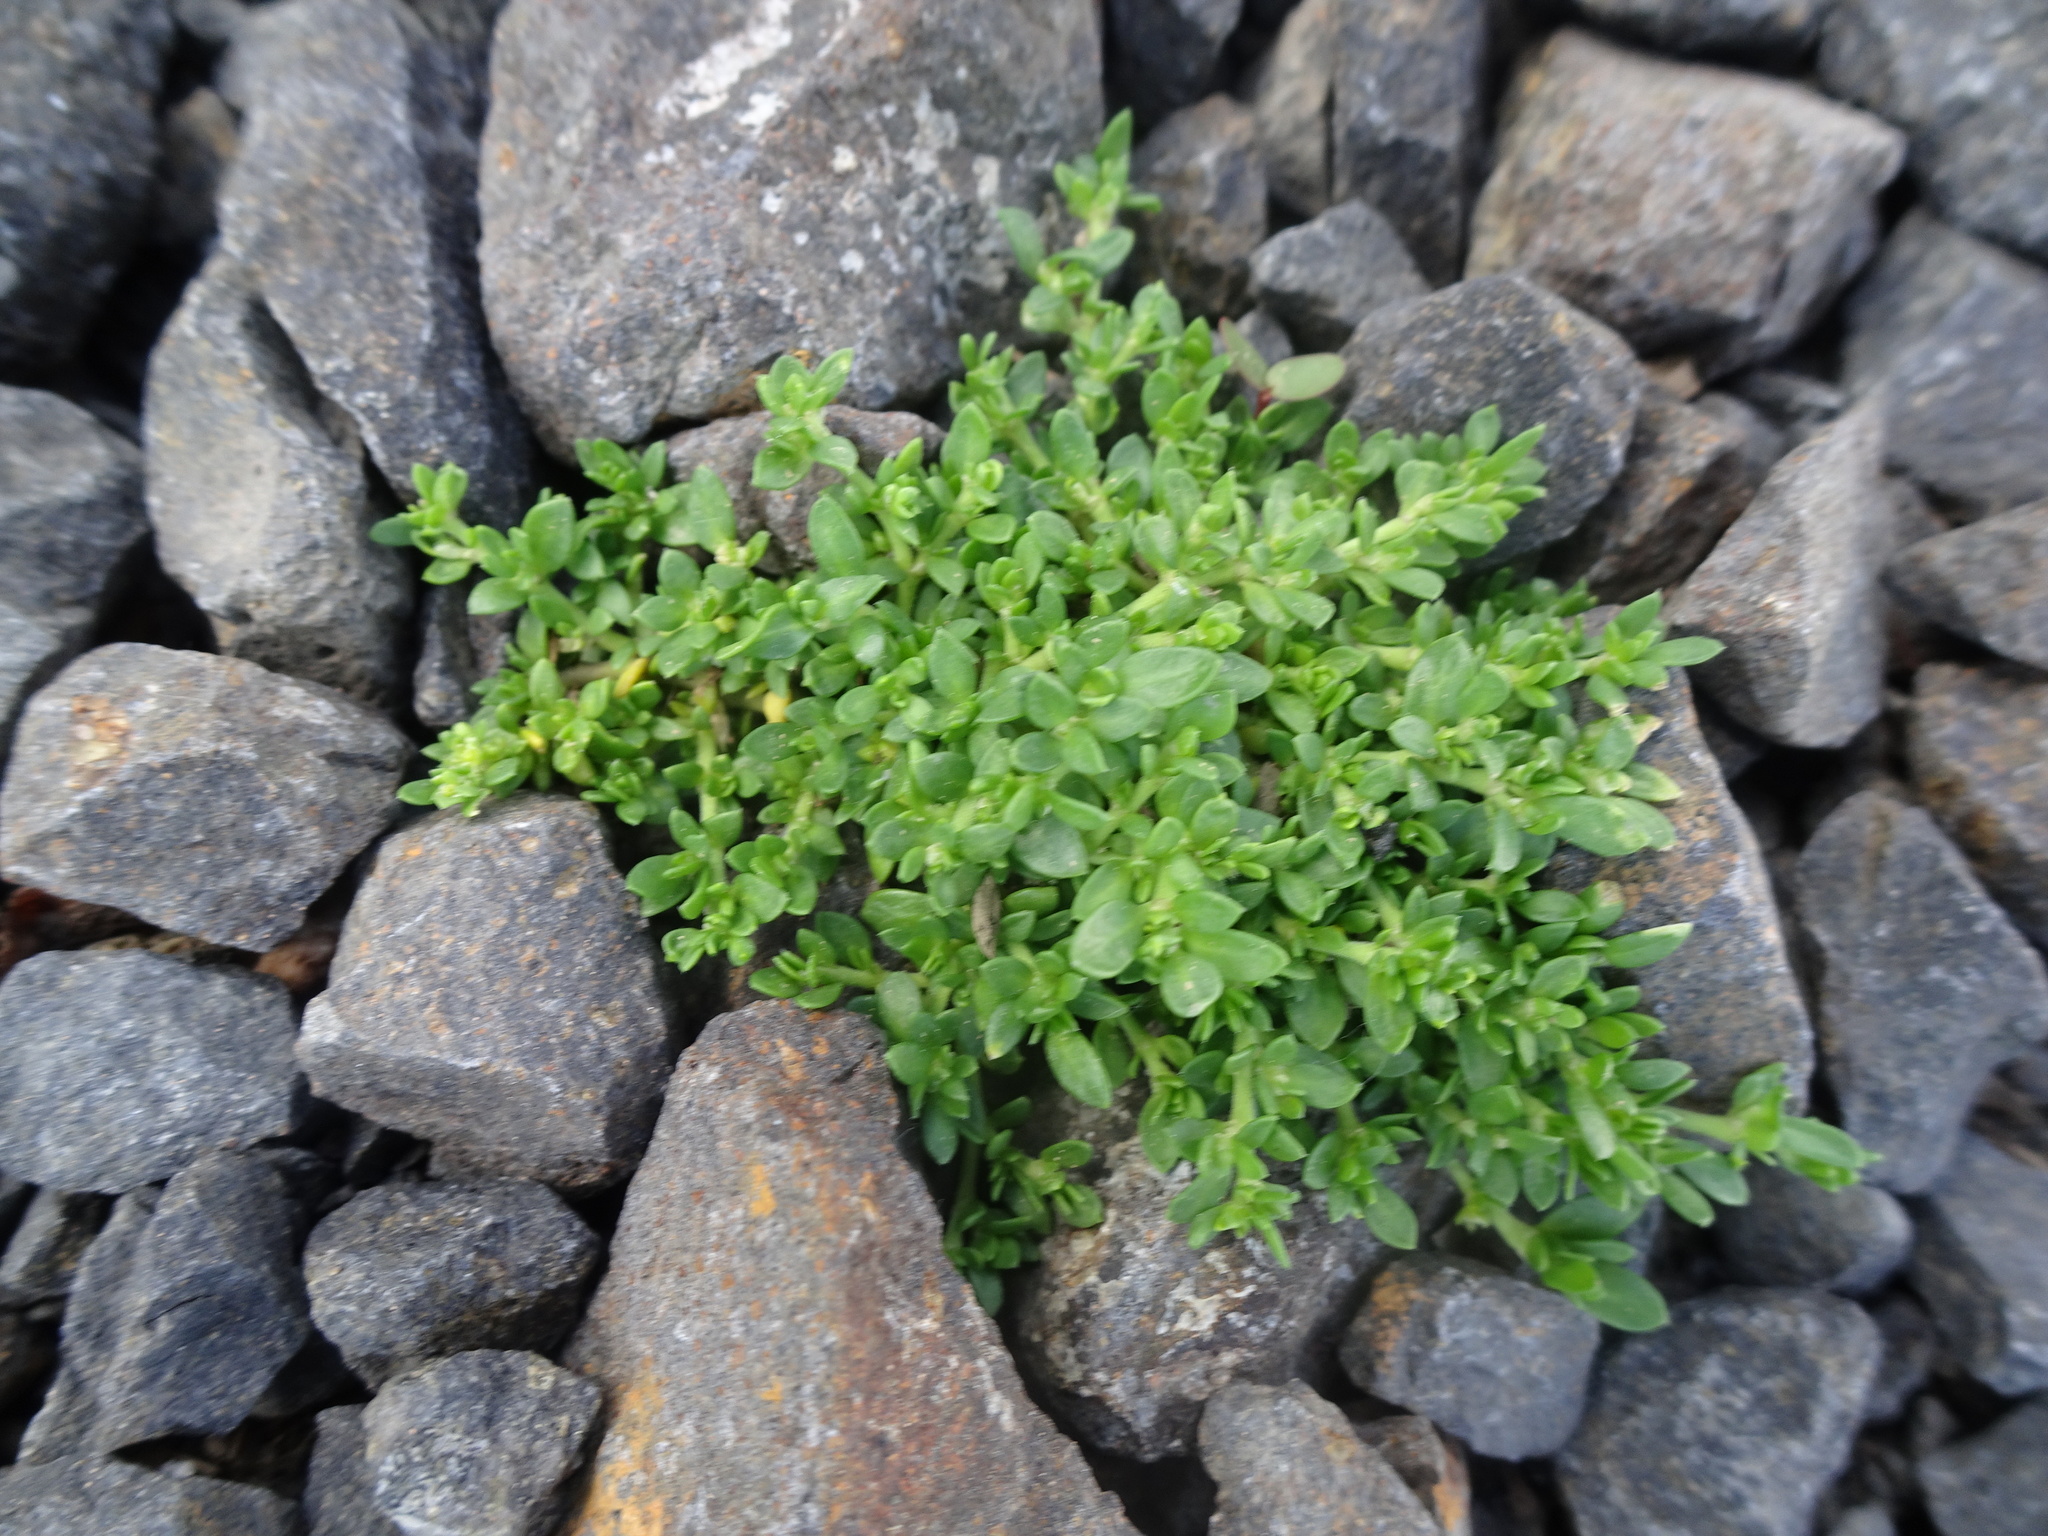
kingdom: Plantae
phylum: Tracheophyta
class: Magnoliopsida
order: Caryophyllales
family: Caryophyllaceae
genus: Herniaria
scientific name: Herniaria glabra
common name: Smooth rupturewort
